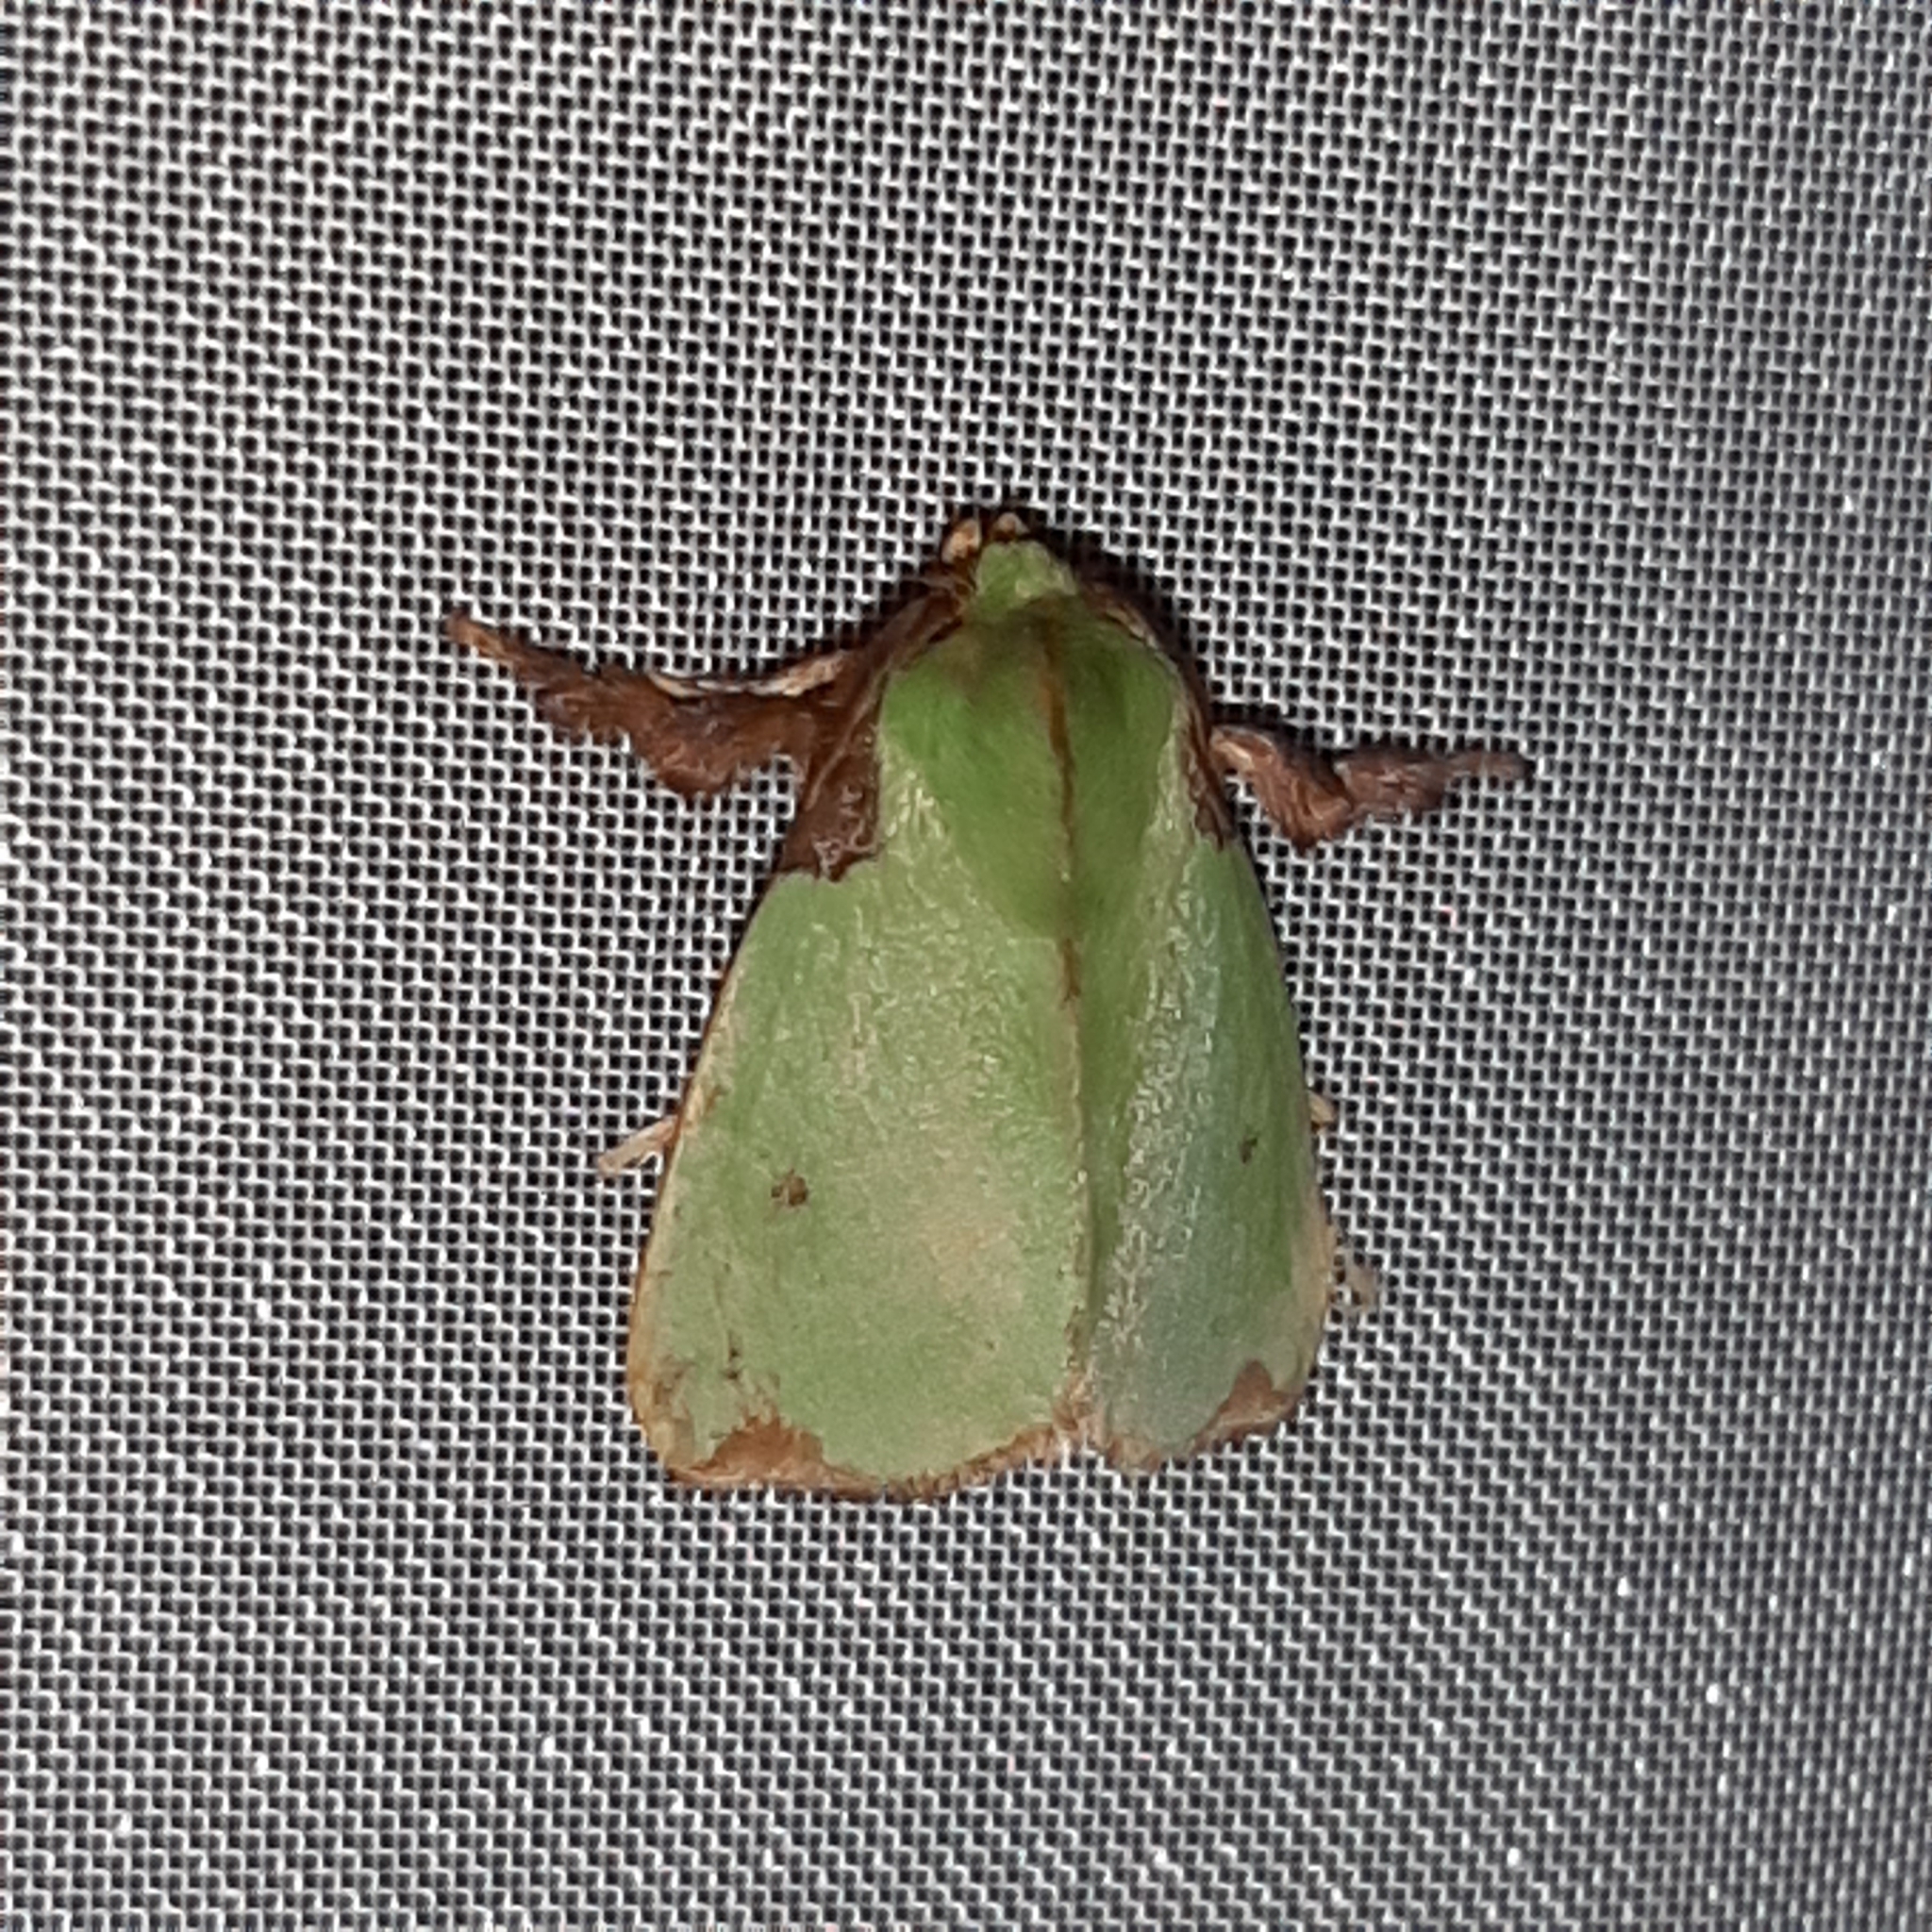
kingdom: Animalia
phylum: Arthropoda
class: Insecta
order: Lepidoptera
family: Limacodidae
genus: Parasa
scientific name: Parasa wellesca
